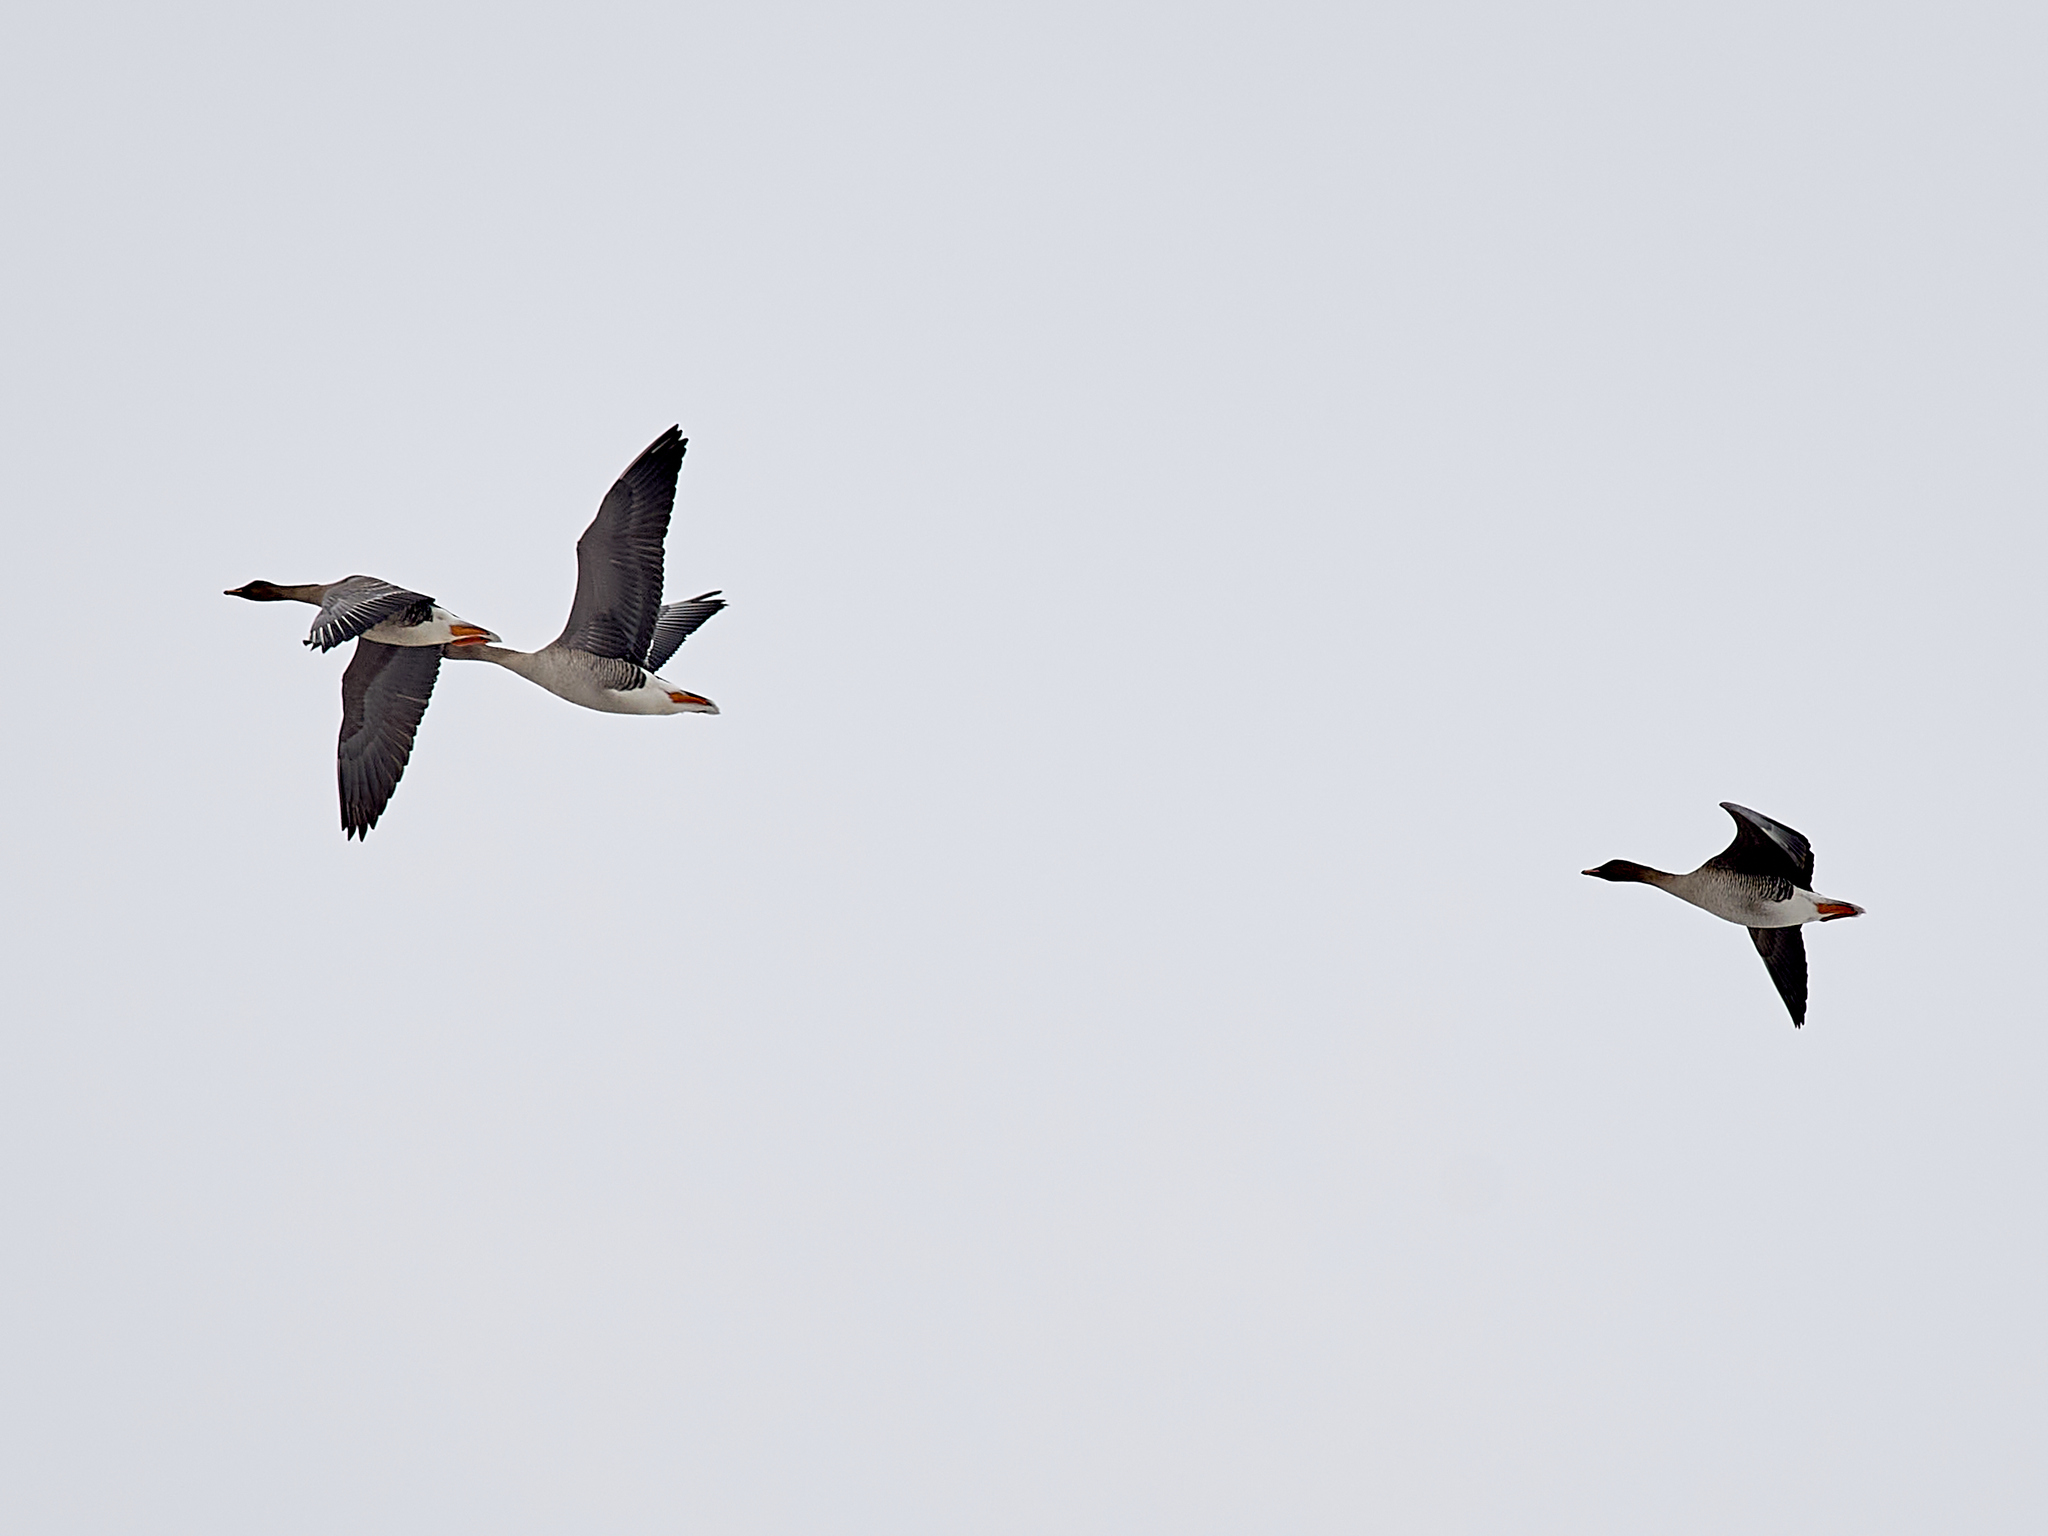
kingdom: Animalia
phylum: Chordata
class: Aves
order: Anseriformes
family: Anatidae
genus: Anser
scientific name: Anser fabalis
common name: Bean goose
